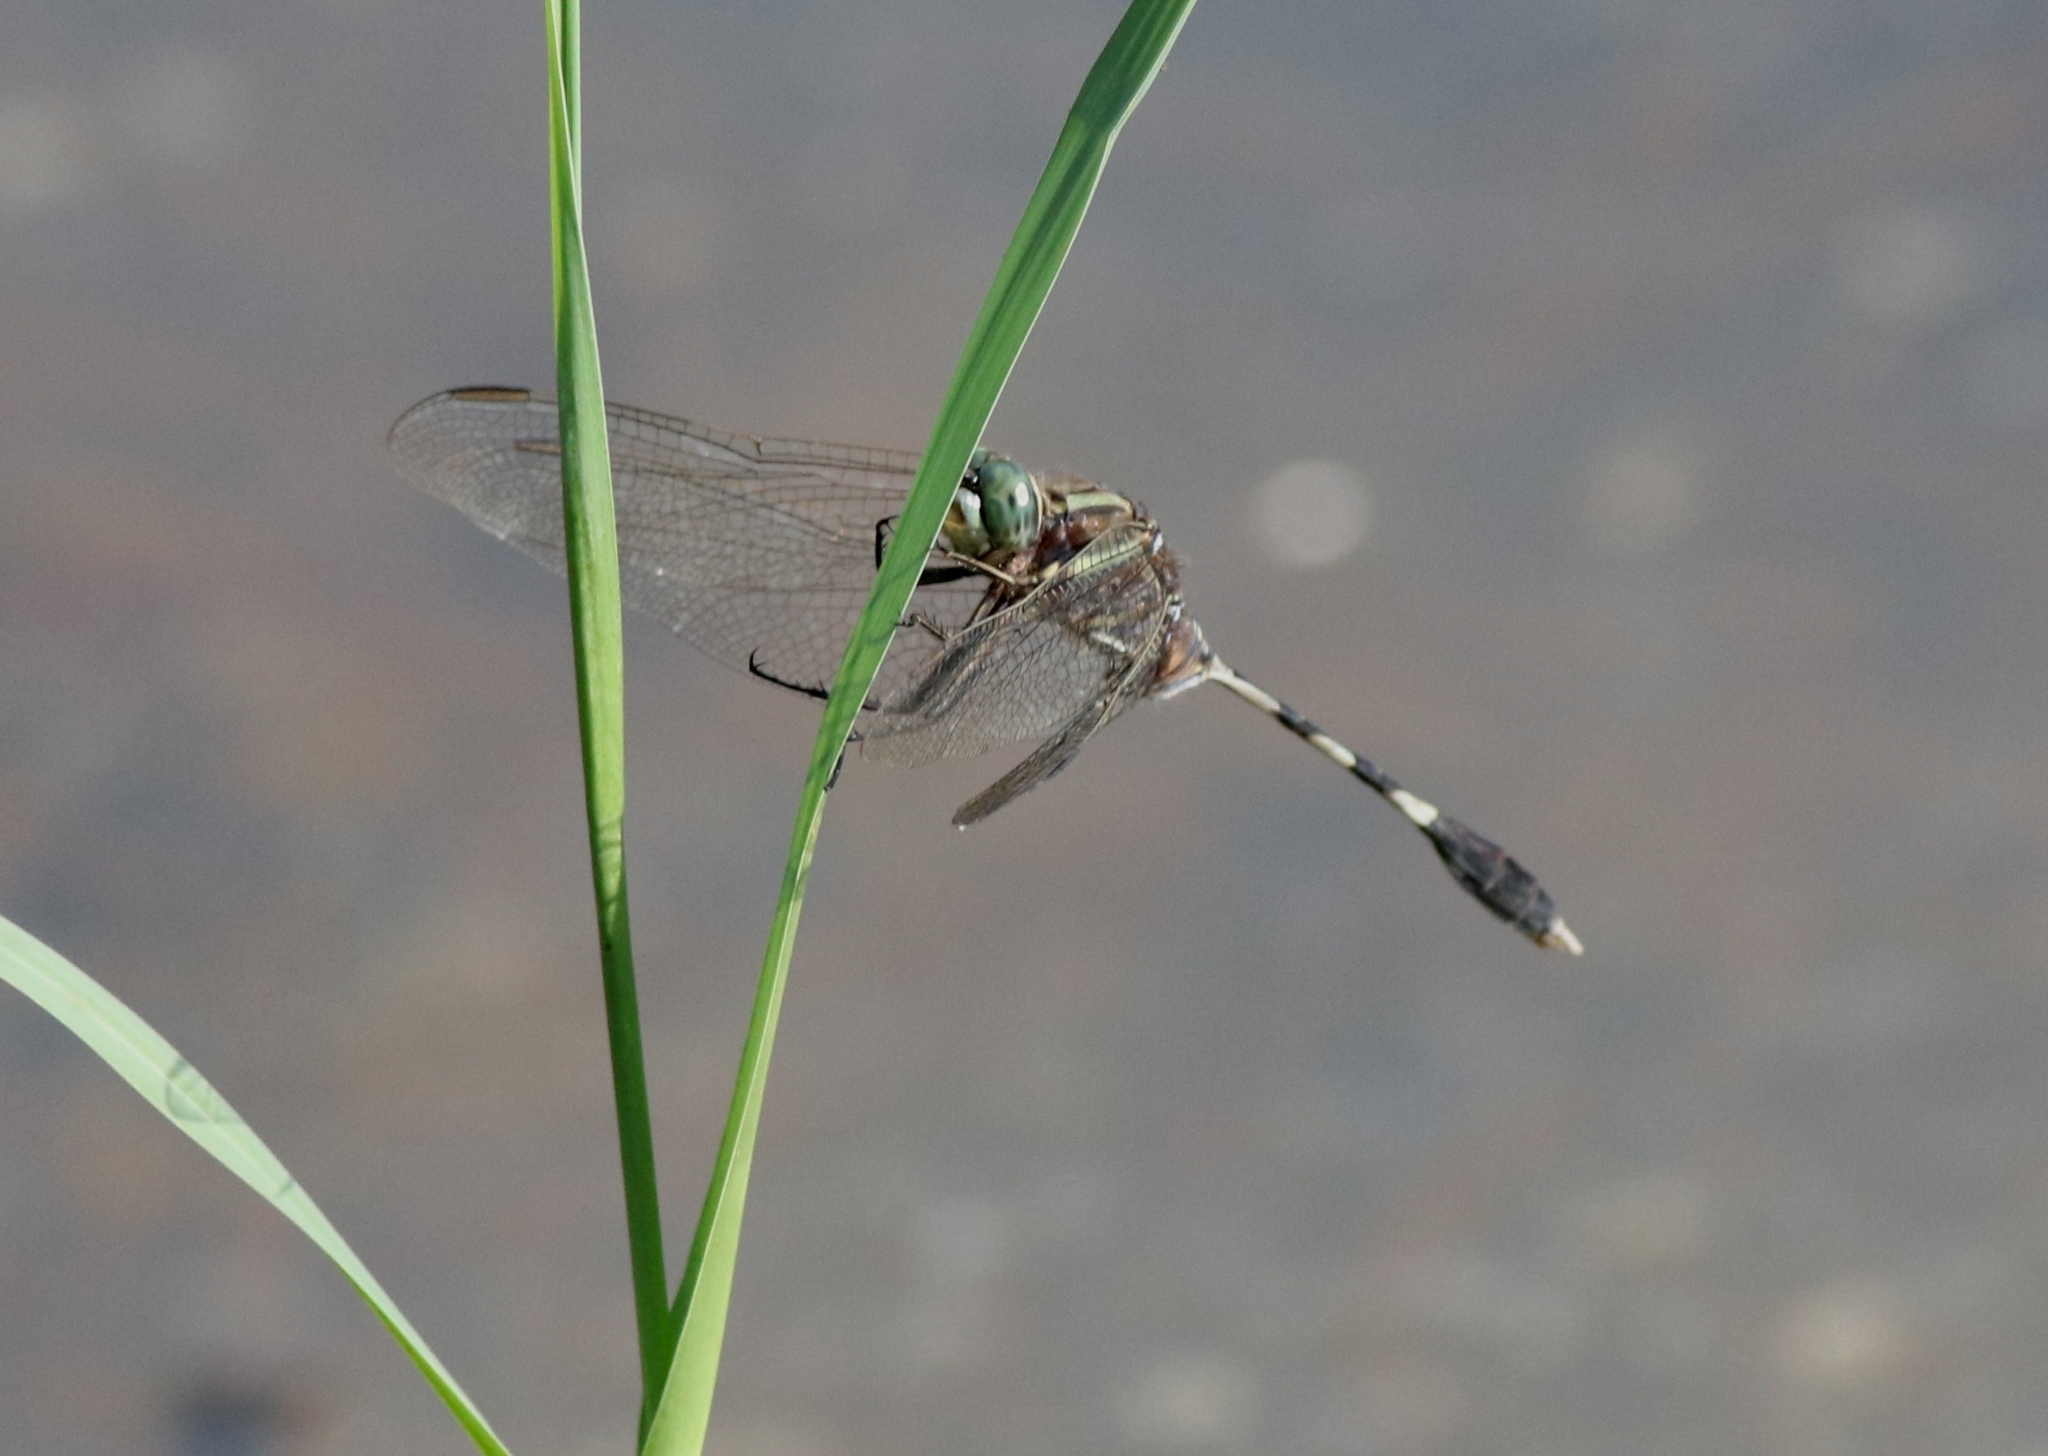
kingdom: Animalia
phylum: Arthropoda
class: Insecta
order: Odonata
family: Libellulidae
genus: Orthetrum
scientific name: Orthetrum sabina
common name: Slender skimmer
